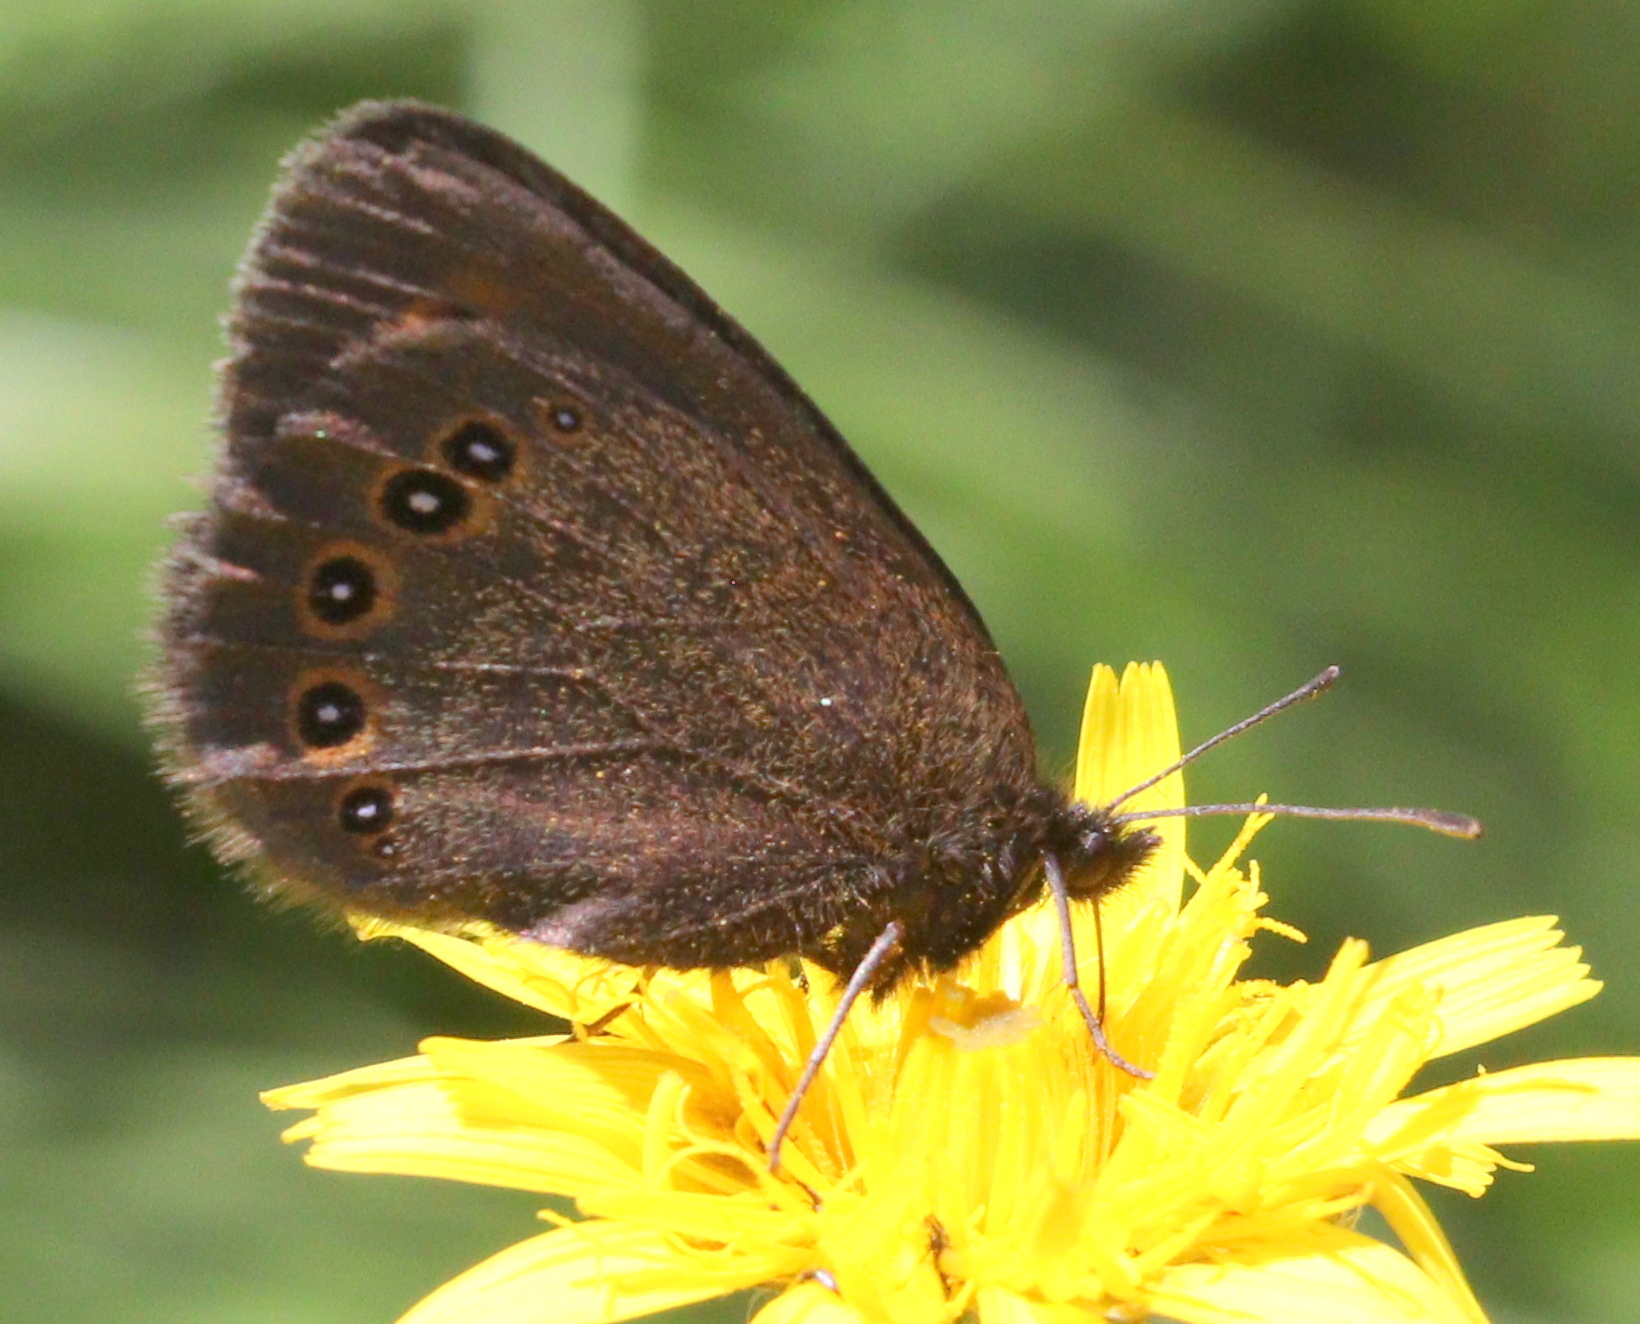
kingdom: Animalia
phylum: Arthropoda
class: Insecta
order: Lepidoptera
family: Nymphalidae
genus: Erebia
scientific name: Erebia oeme
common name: Bright-eyed ringlet
